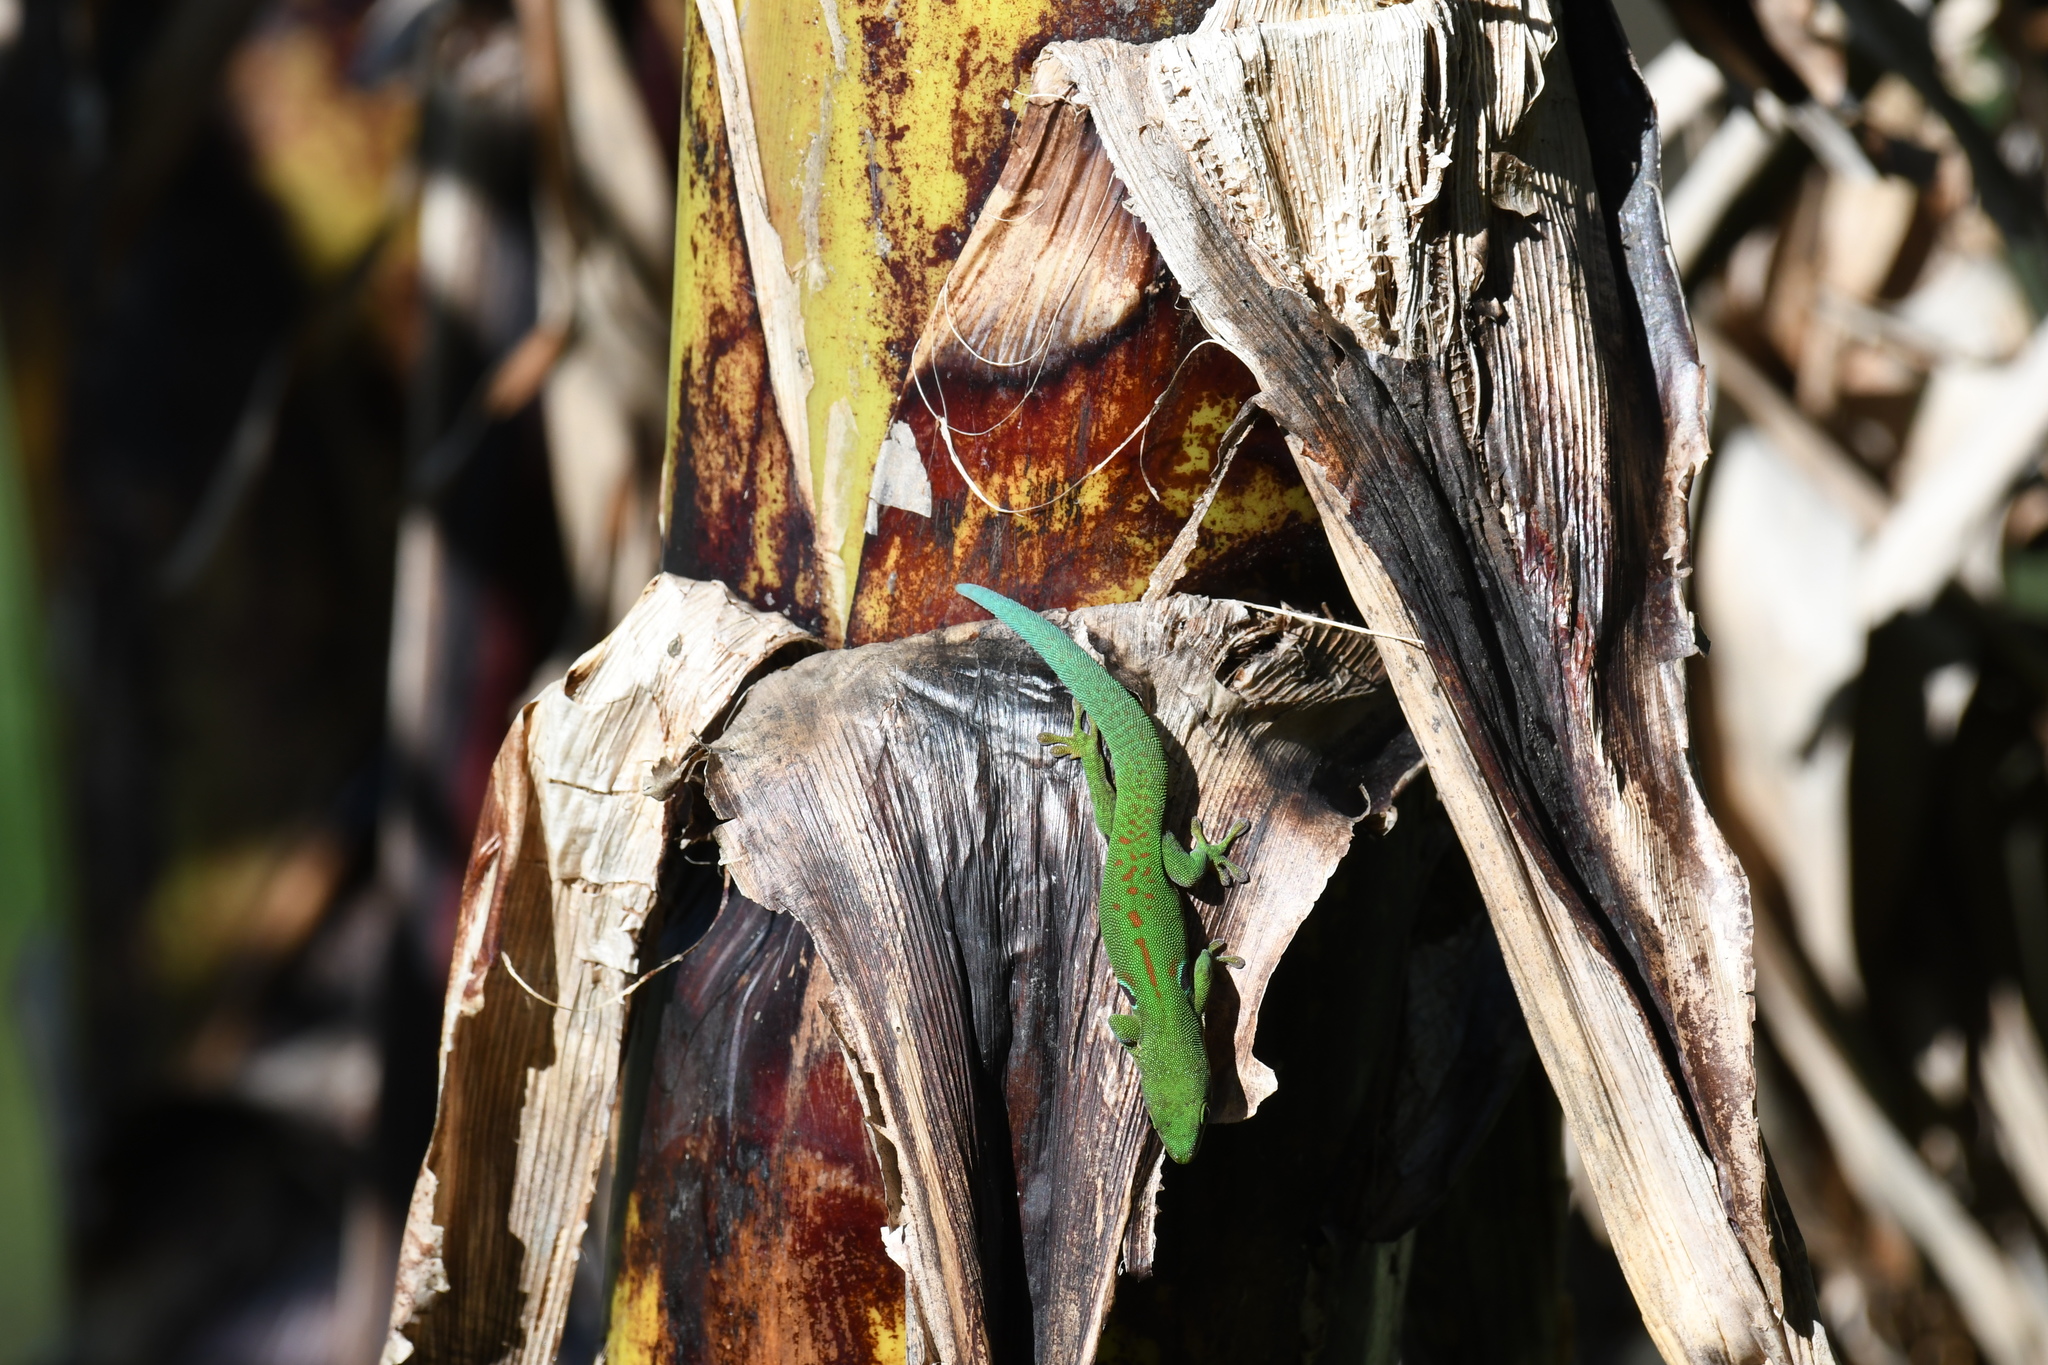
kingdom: Animalia
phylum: Chordata
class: Squamata
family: Gekkonidae
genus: Phelsuma
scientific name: Phelsuma quadriocellata
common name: Peacock day gecko
